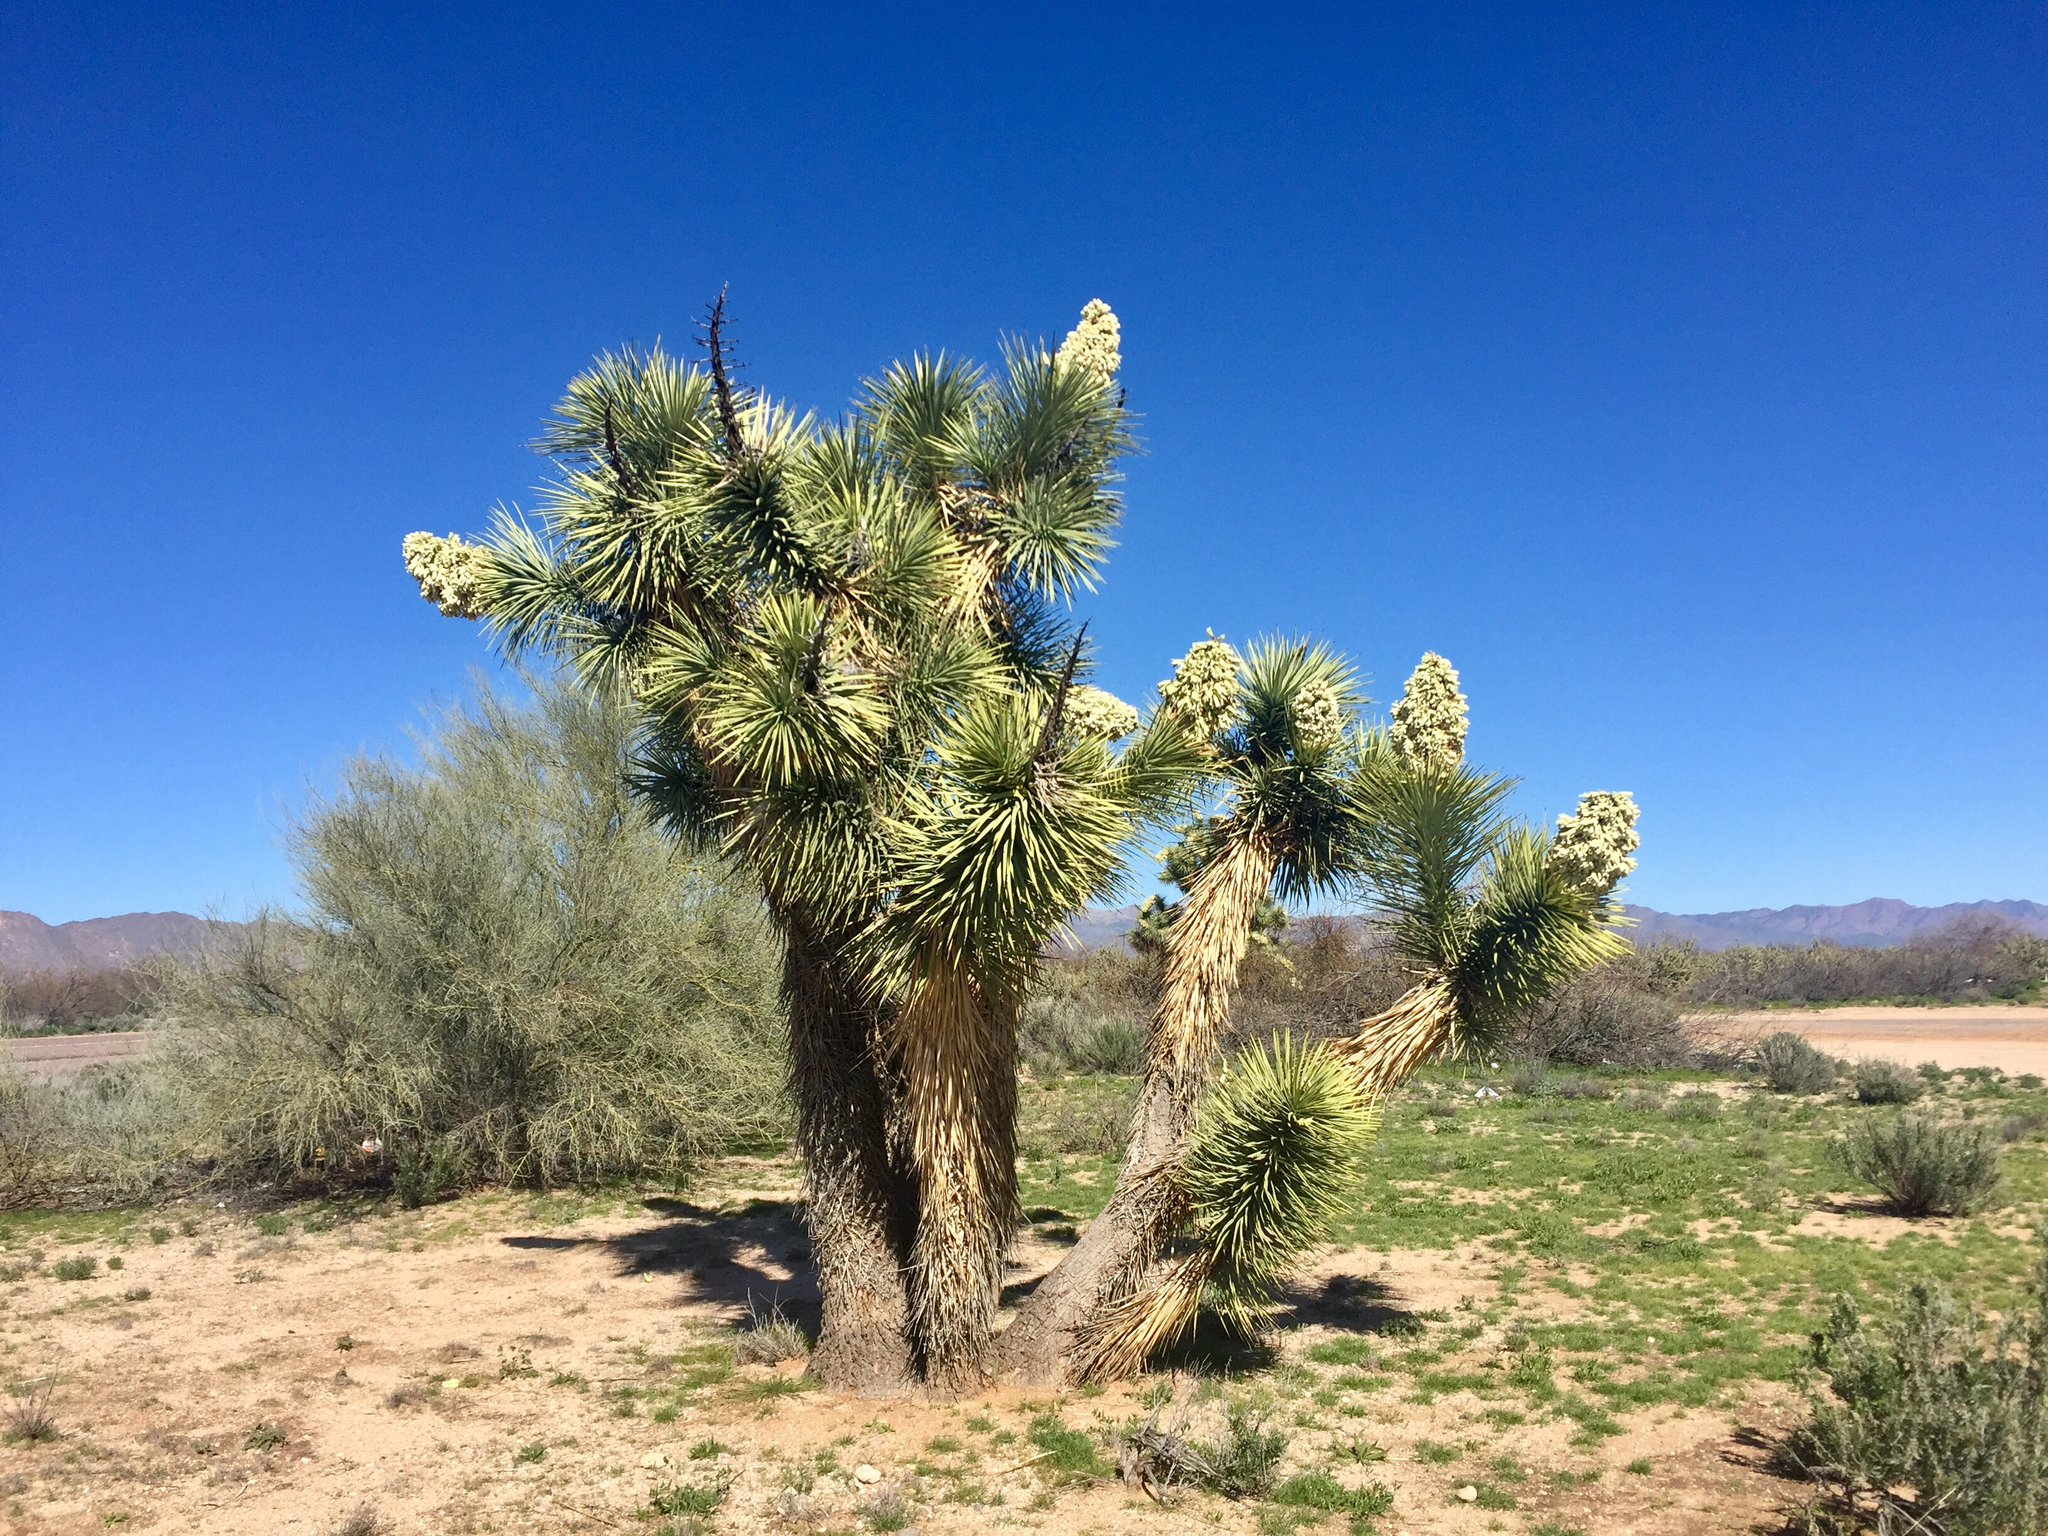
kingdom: Plantae
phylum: Tracheophyta
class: Liliopsida
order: Asparagales
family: Asparagaceae
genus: Yucca
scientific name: Yucca brevifolia
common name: Joshua tree
